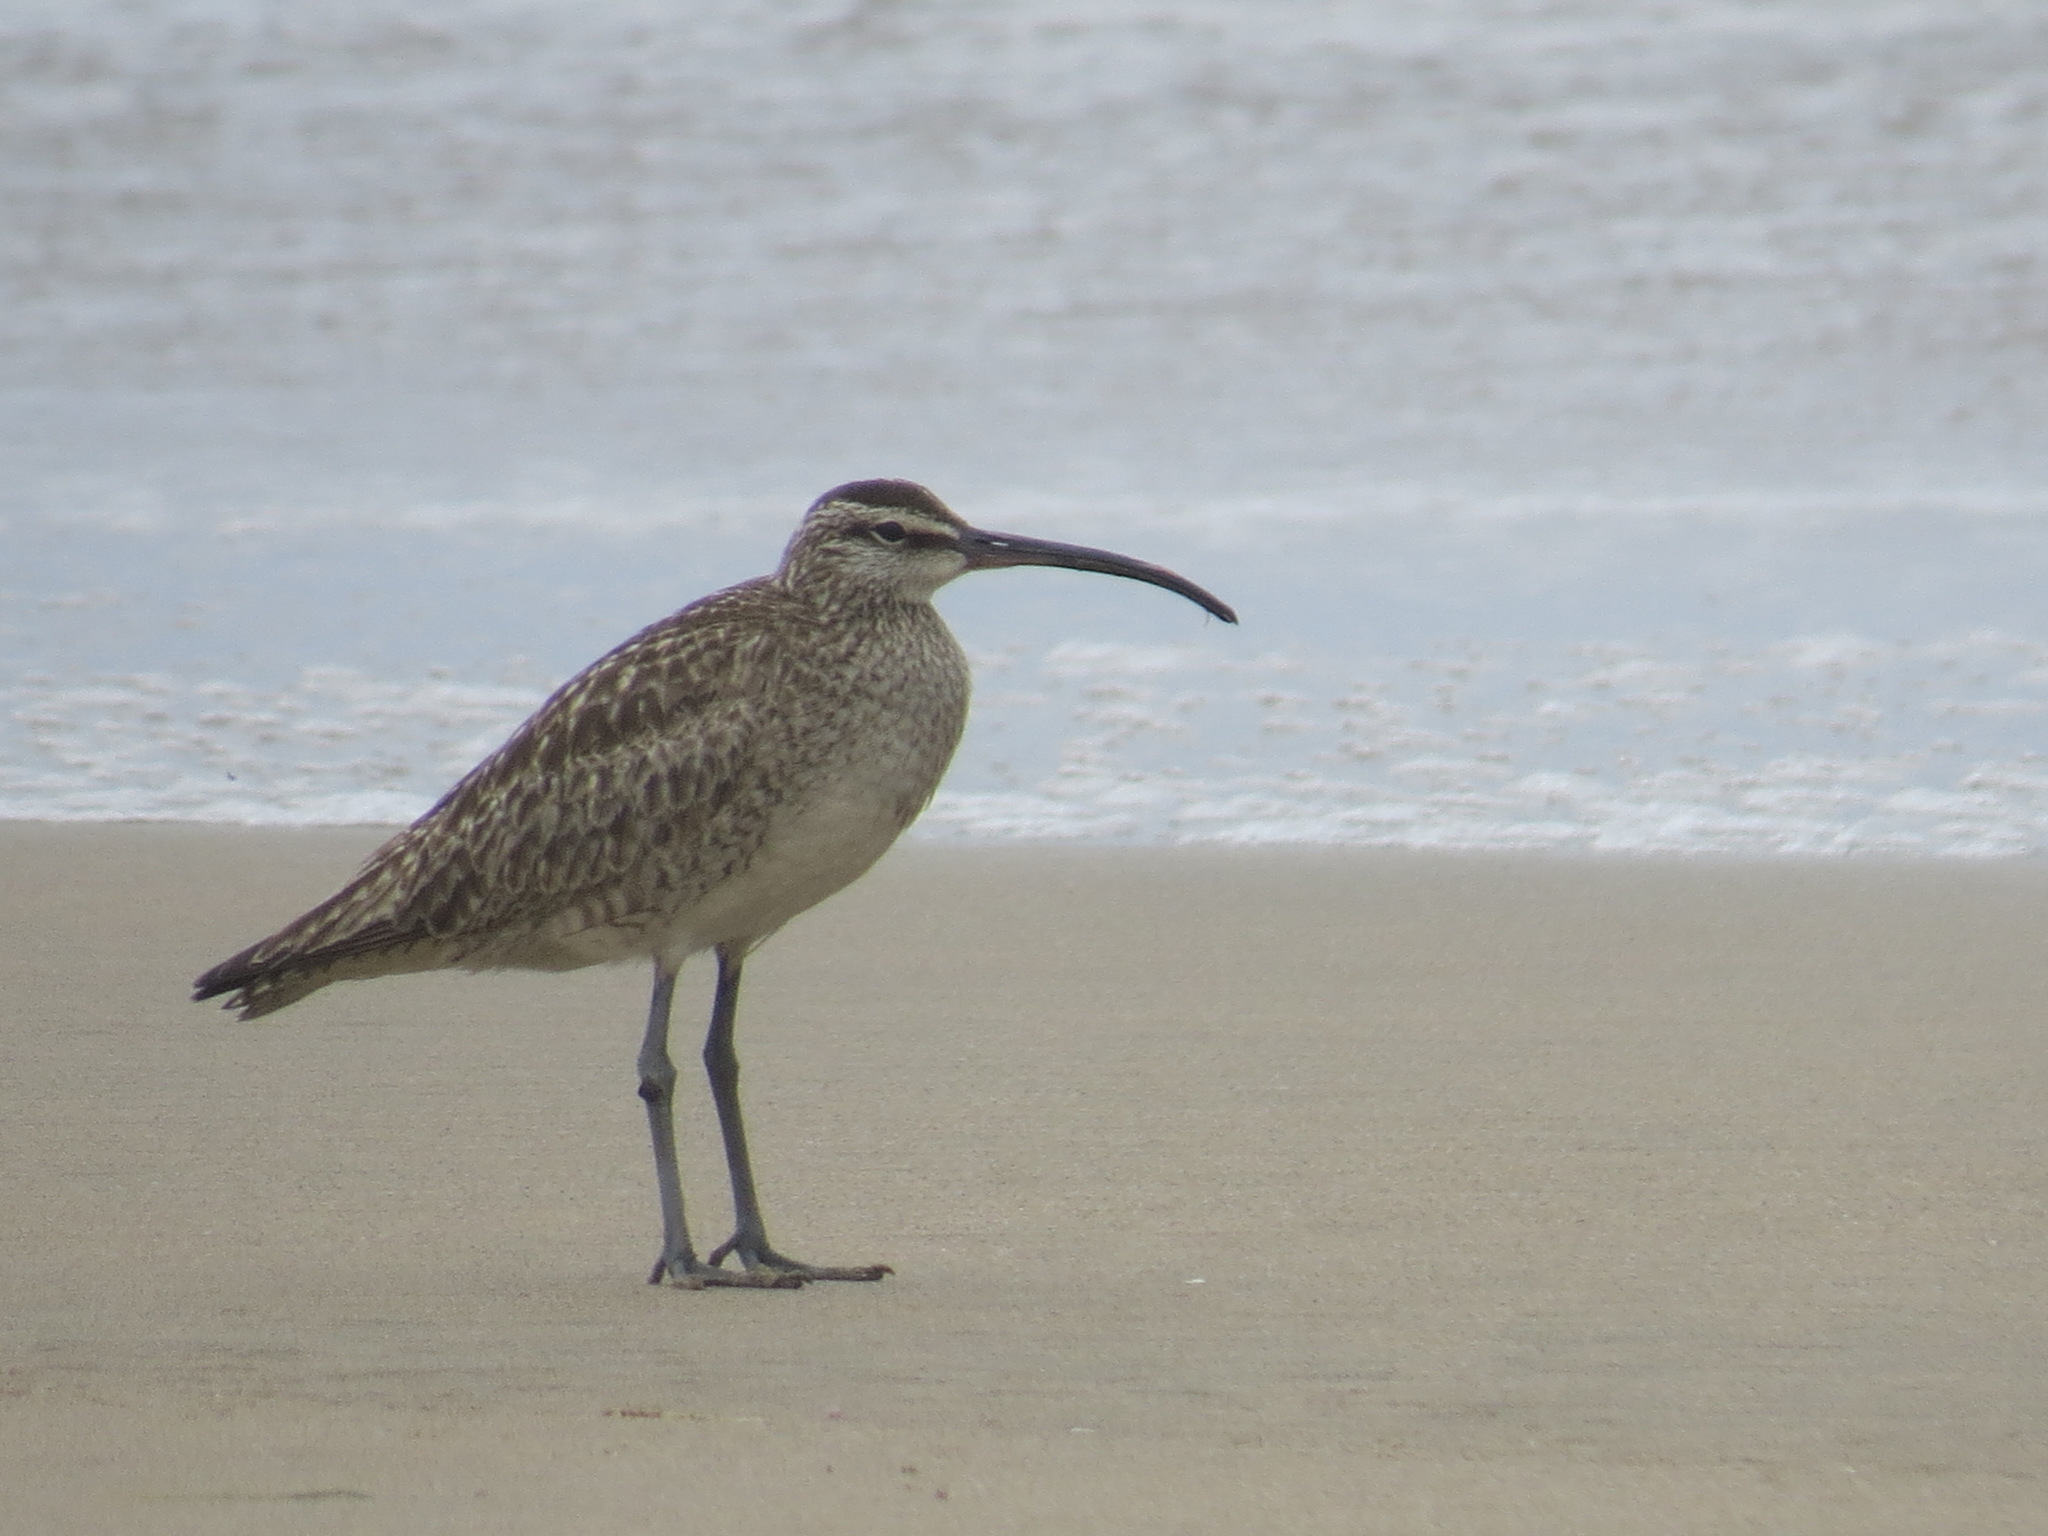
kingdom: Animalia
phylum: Chordata
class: Aves
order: Charadriiformes
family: Scolopacidae
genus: Numenius
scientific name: Numenius phaeopus
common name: Whimbrel
